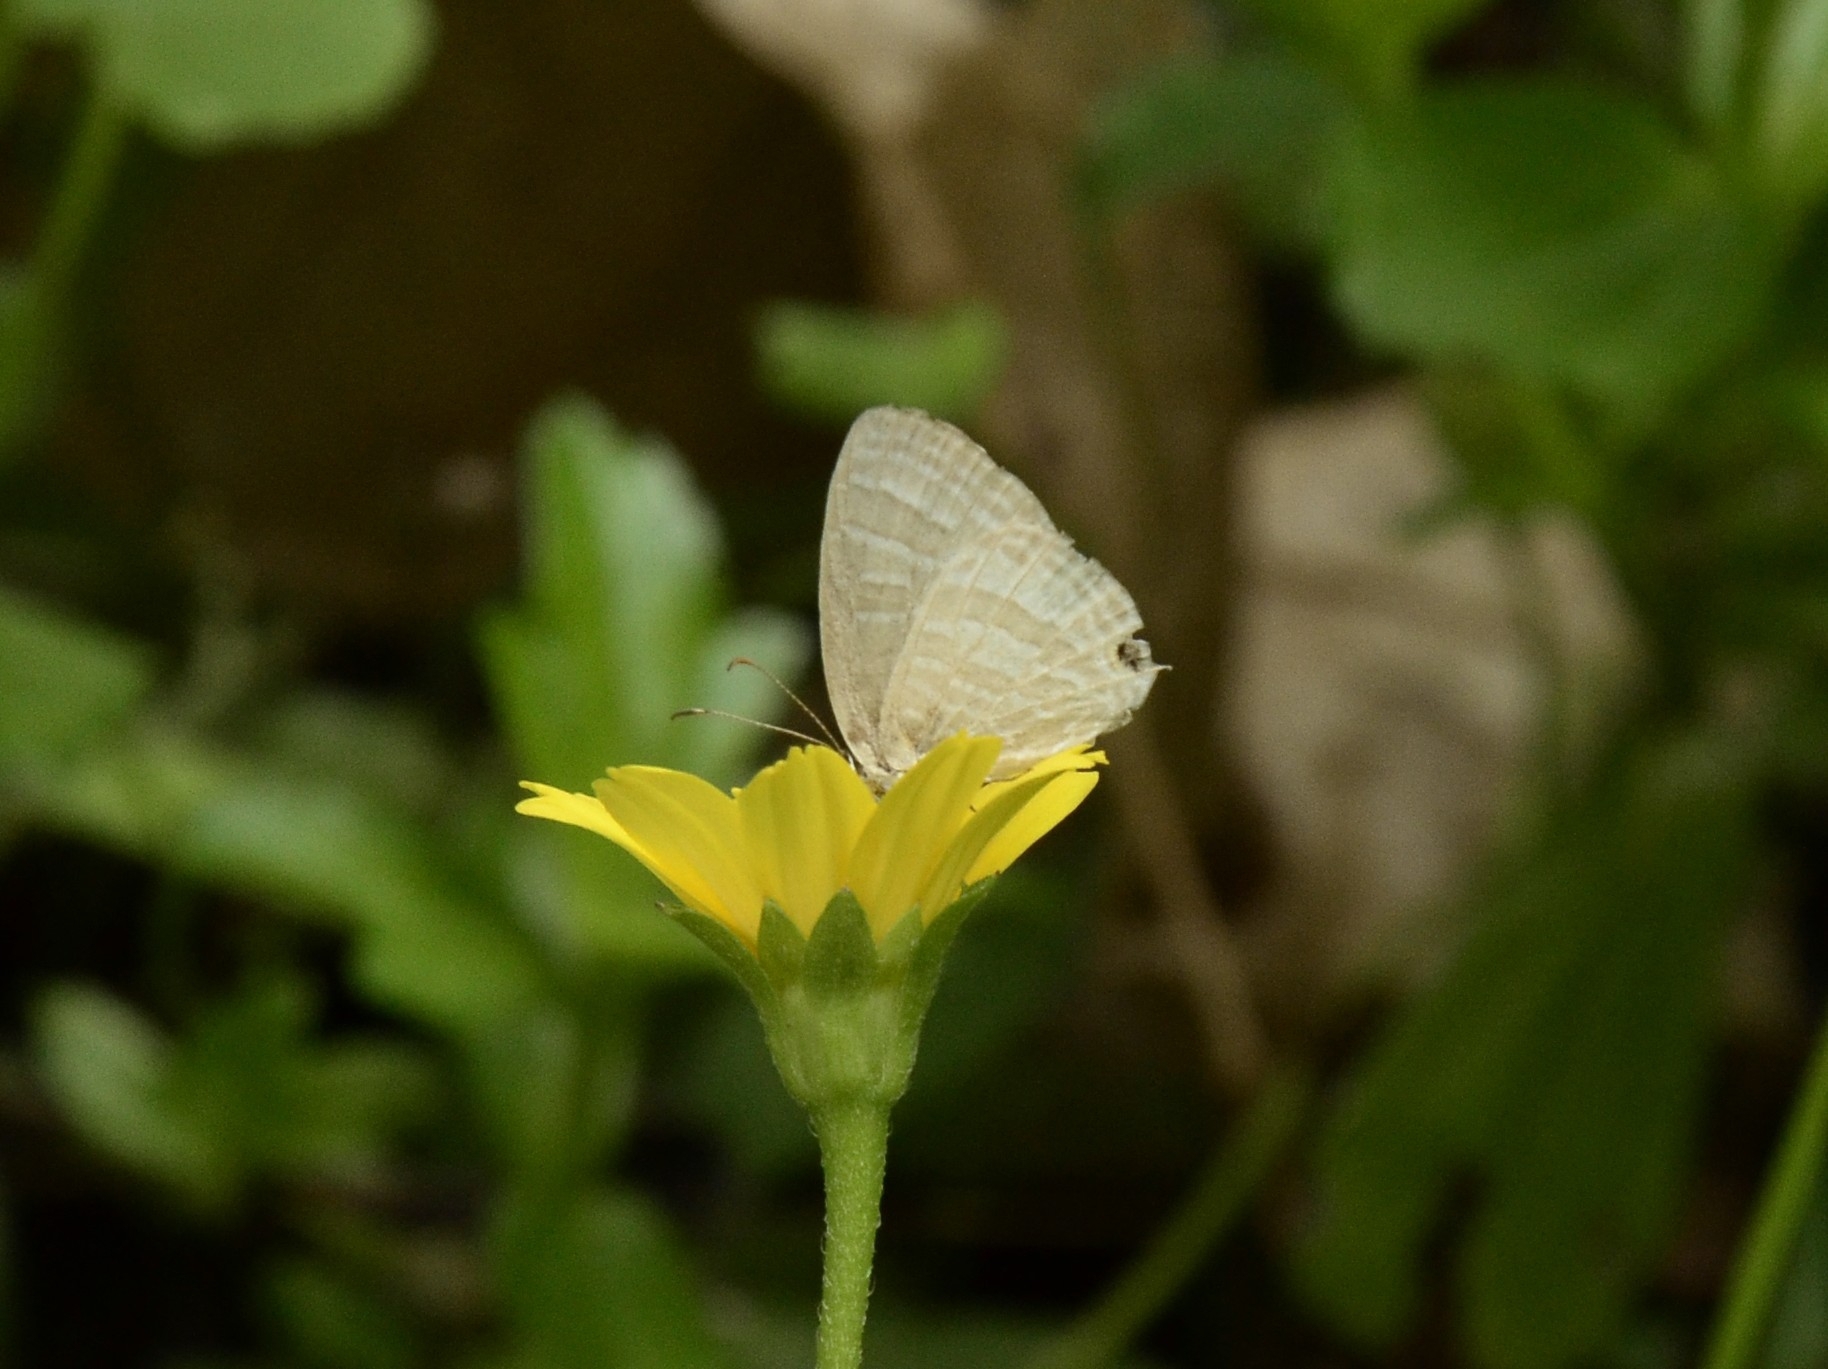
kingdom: Animalia
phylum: Arthropoda
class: Insecta
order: Lepidoptera
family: Lycaenidae
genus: Jamides
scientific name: Jamides celeno
